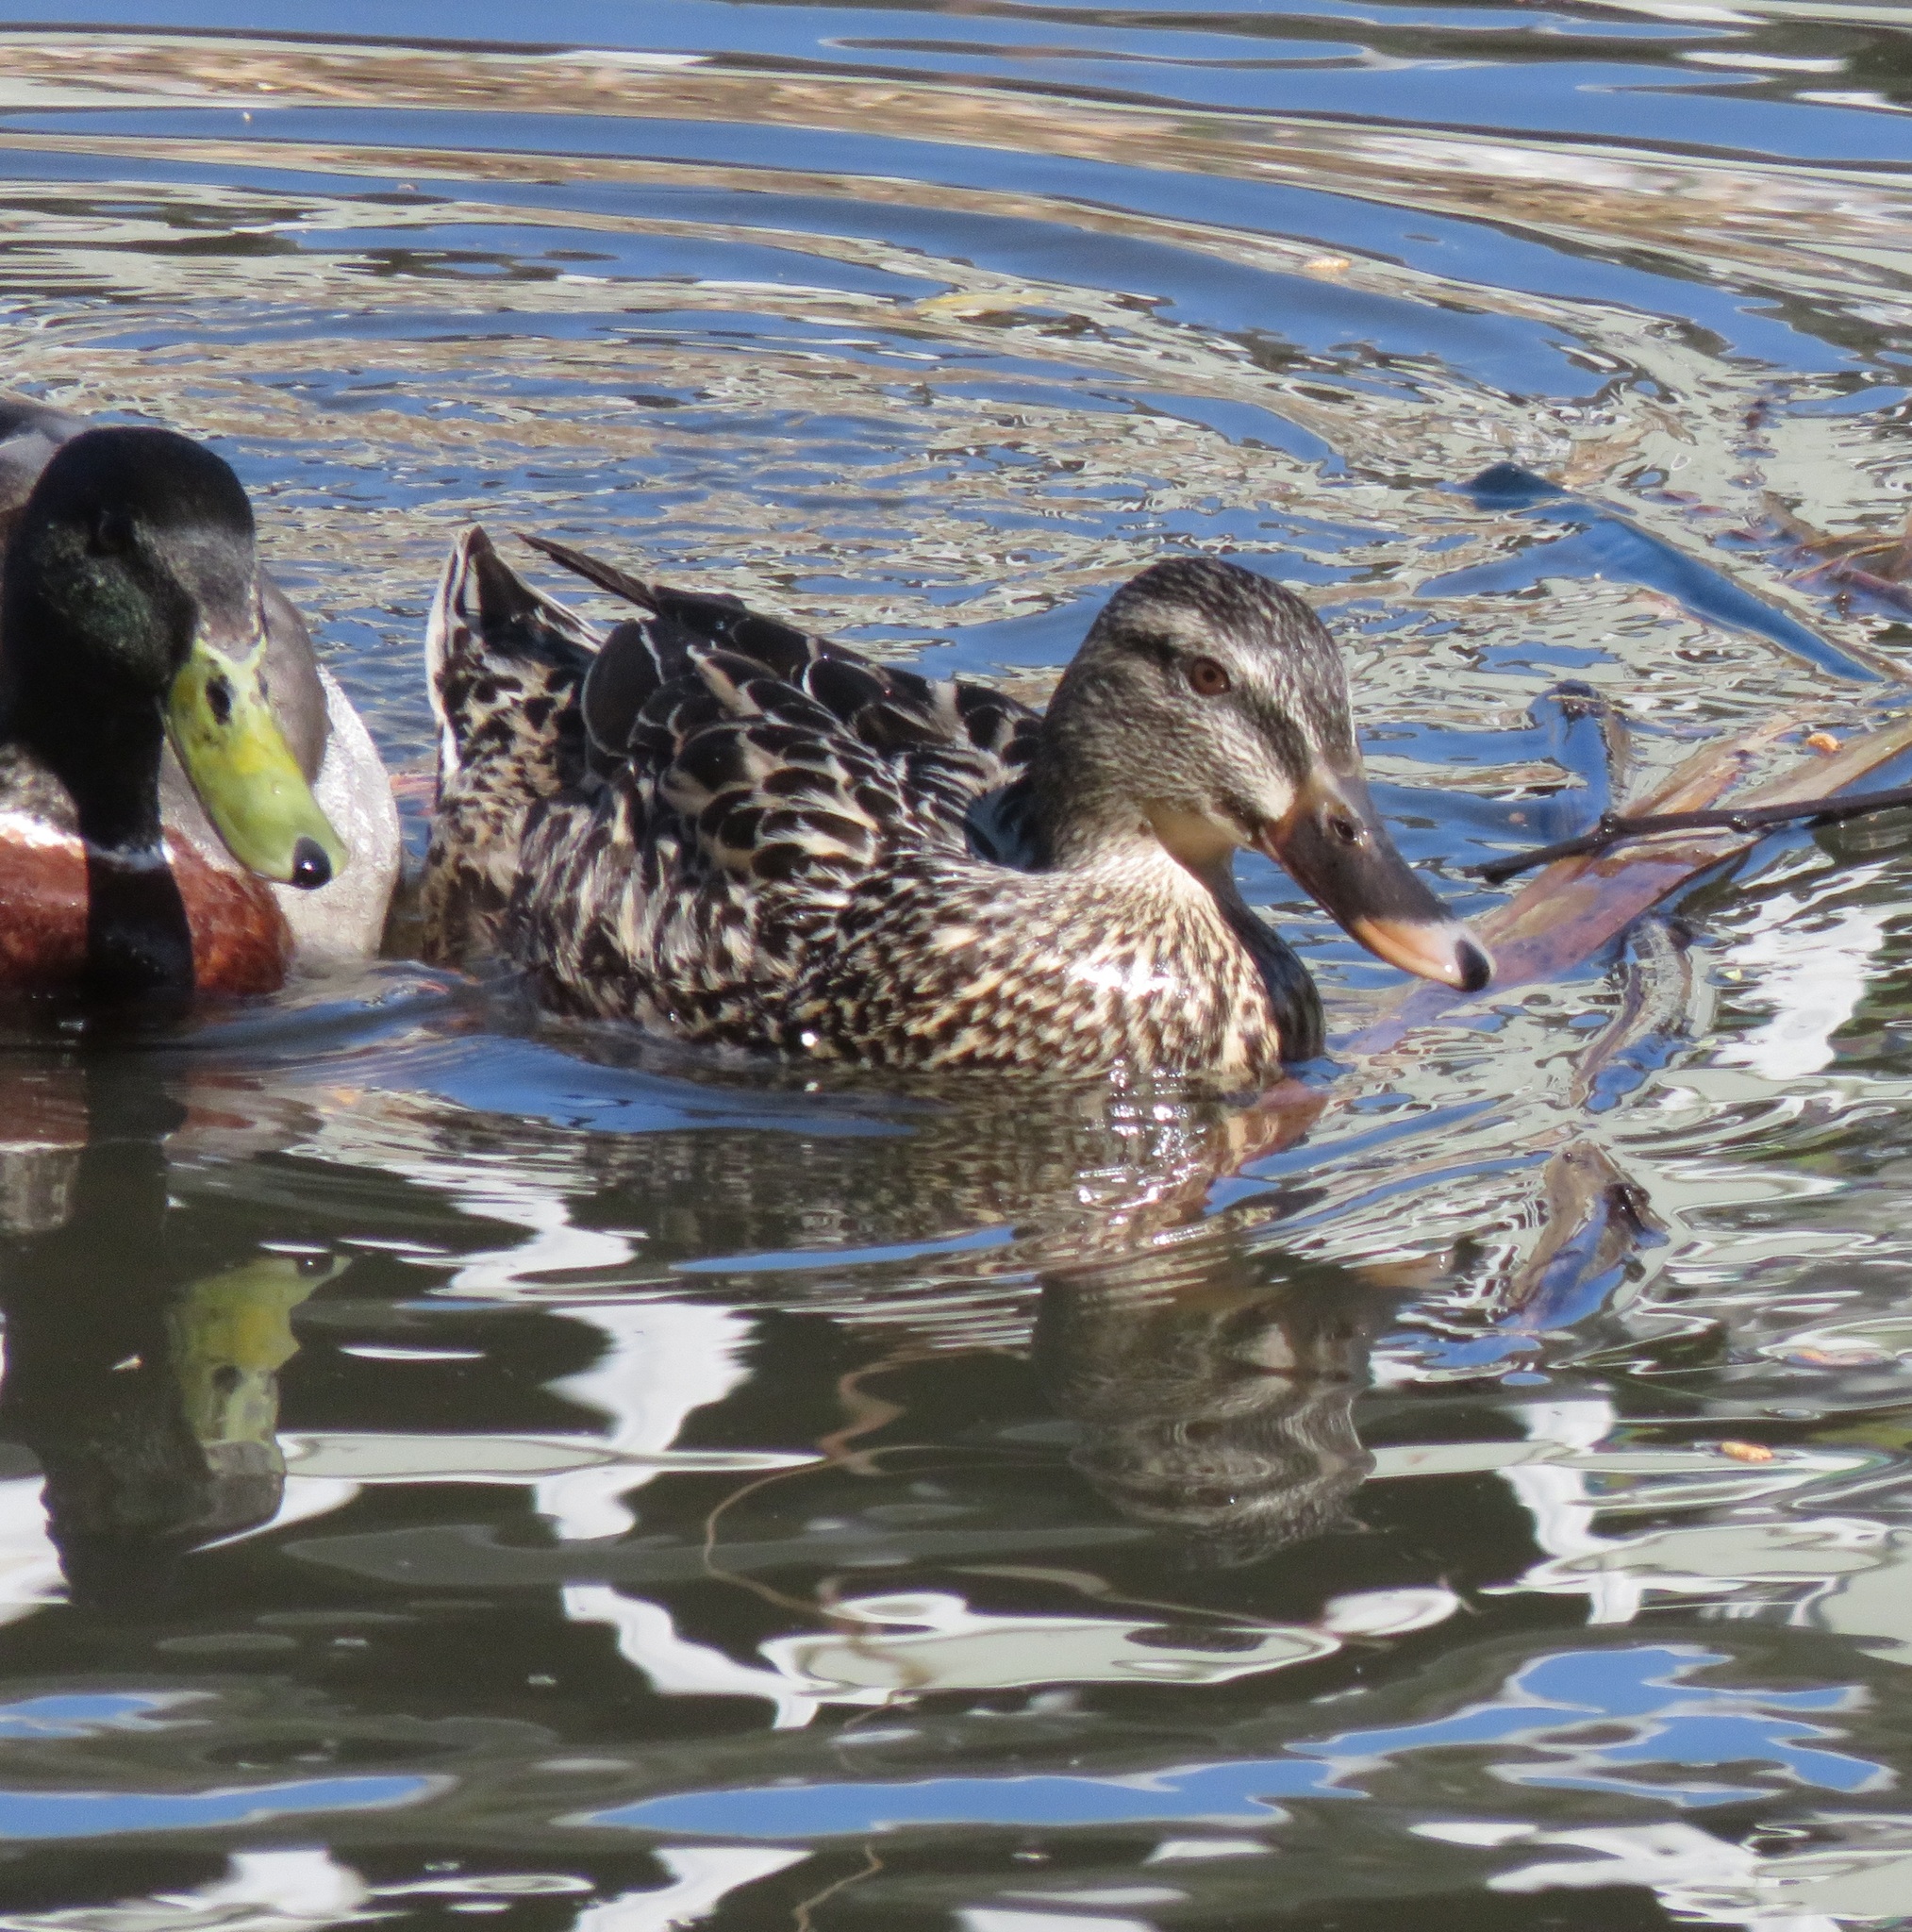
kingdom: Animalia
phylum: Chordata
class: Aves
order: Anseriformes
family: Anatidae
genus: Anas
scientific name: Anas
